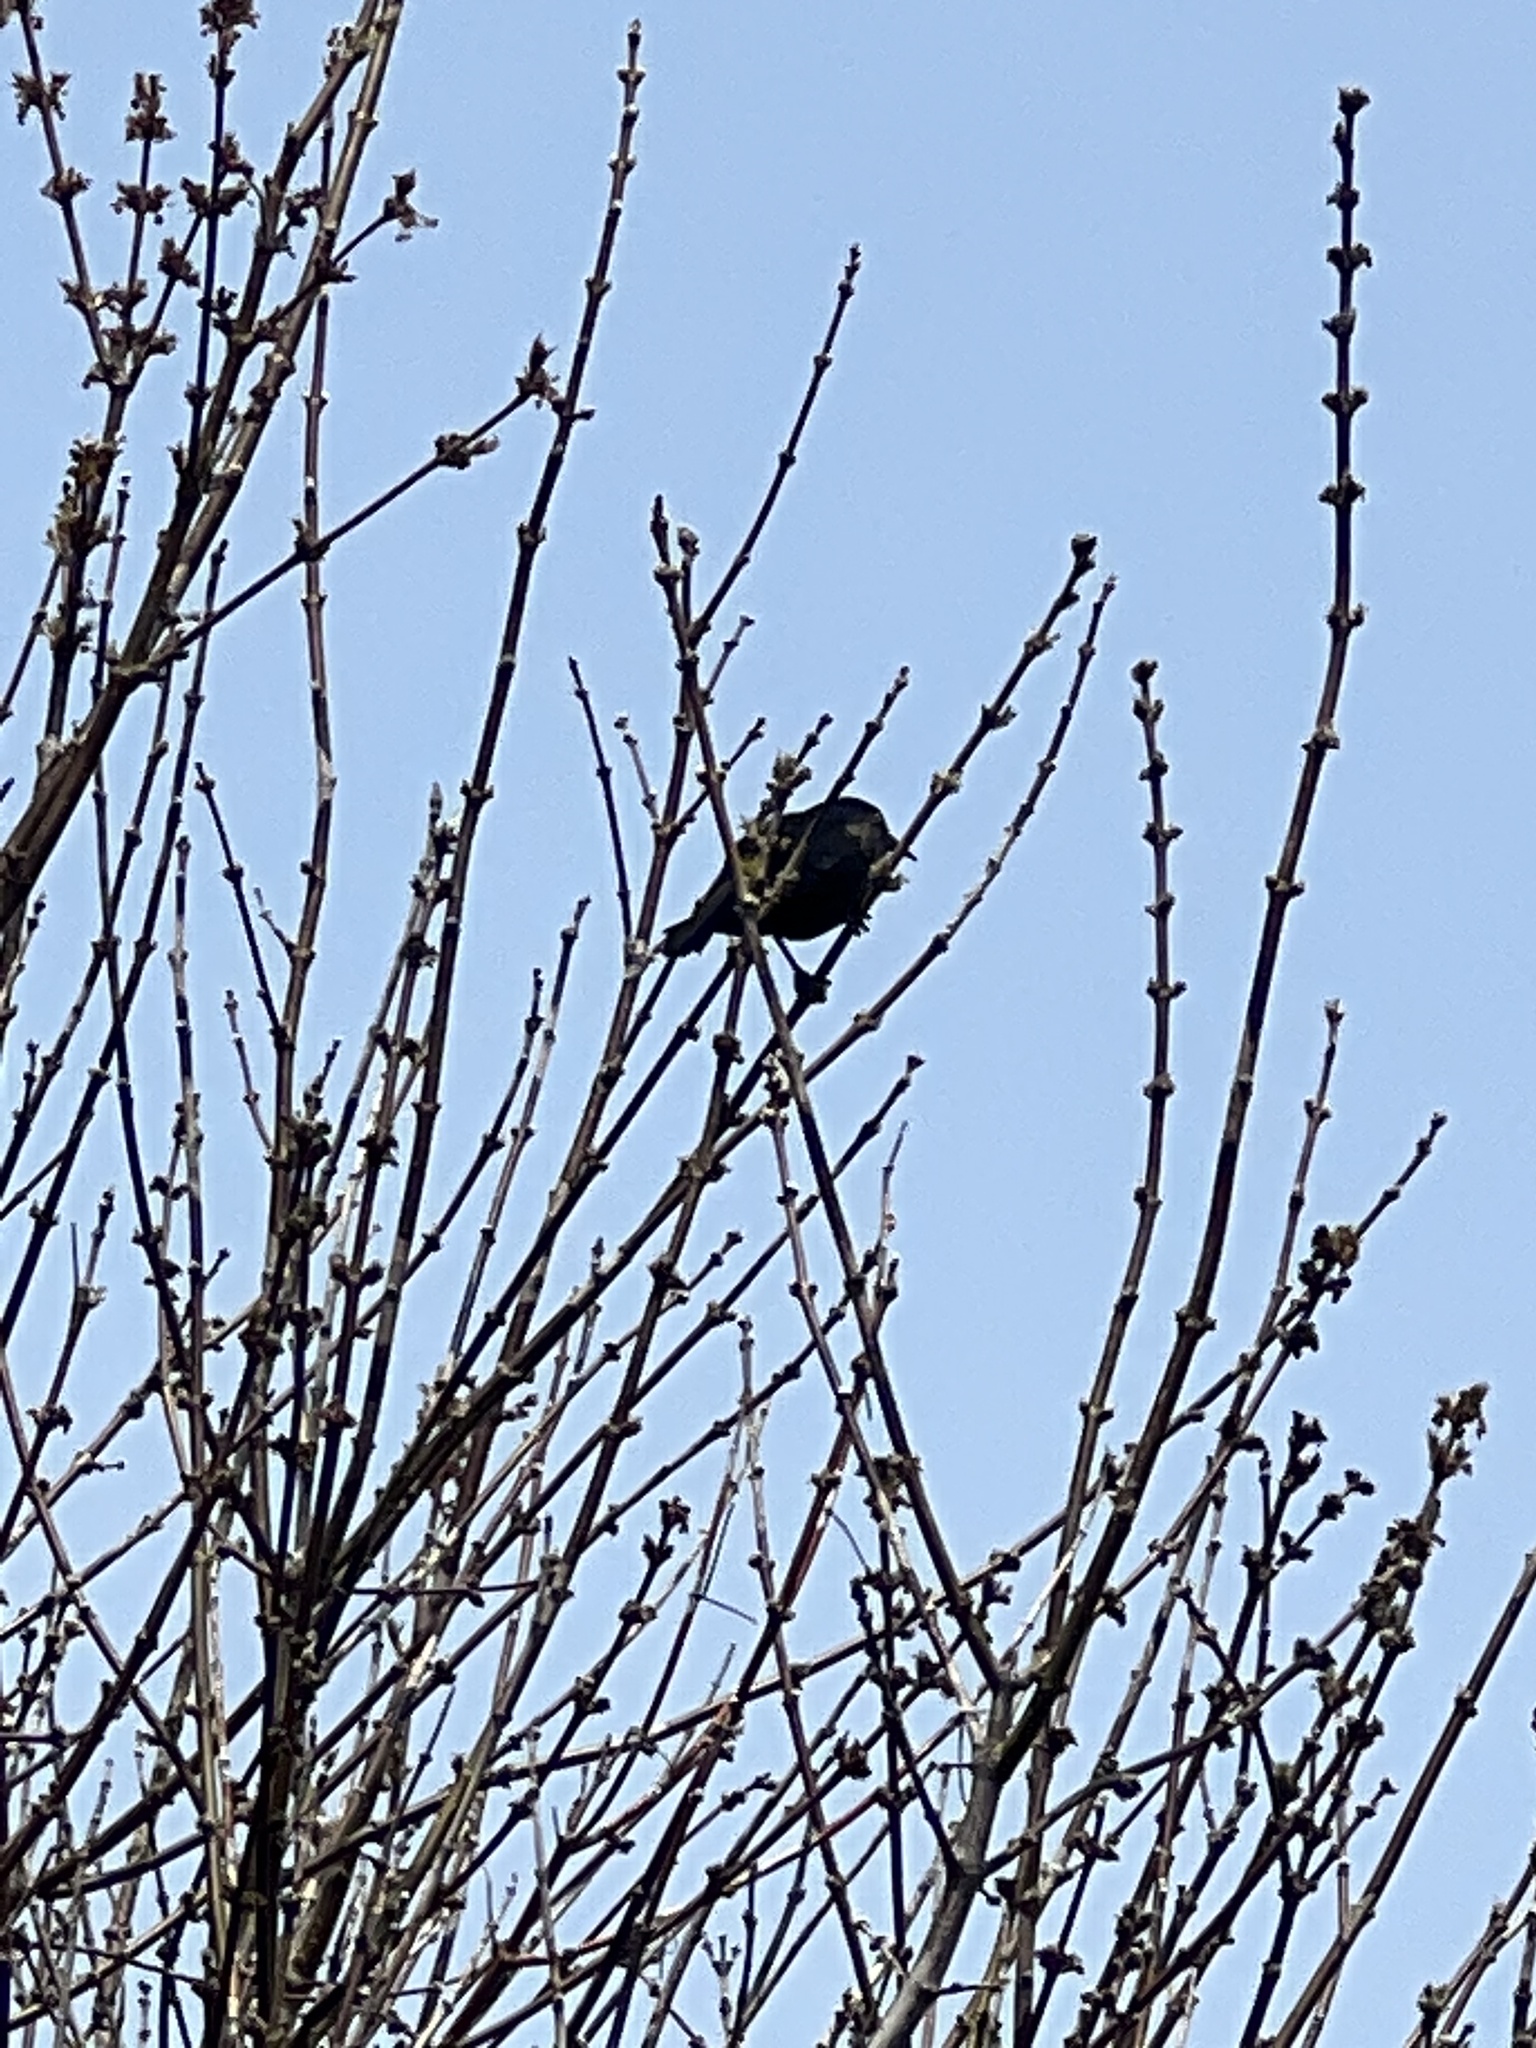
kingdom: Animalia
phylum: Chordata
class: Aves
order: Passeriformes
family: Icteridae
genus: Quiscalus
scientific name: Quiscalus quiscula
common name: Common grackle
